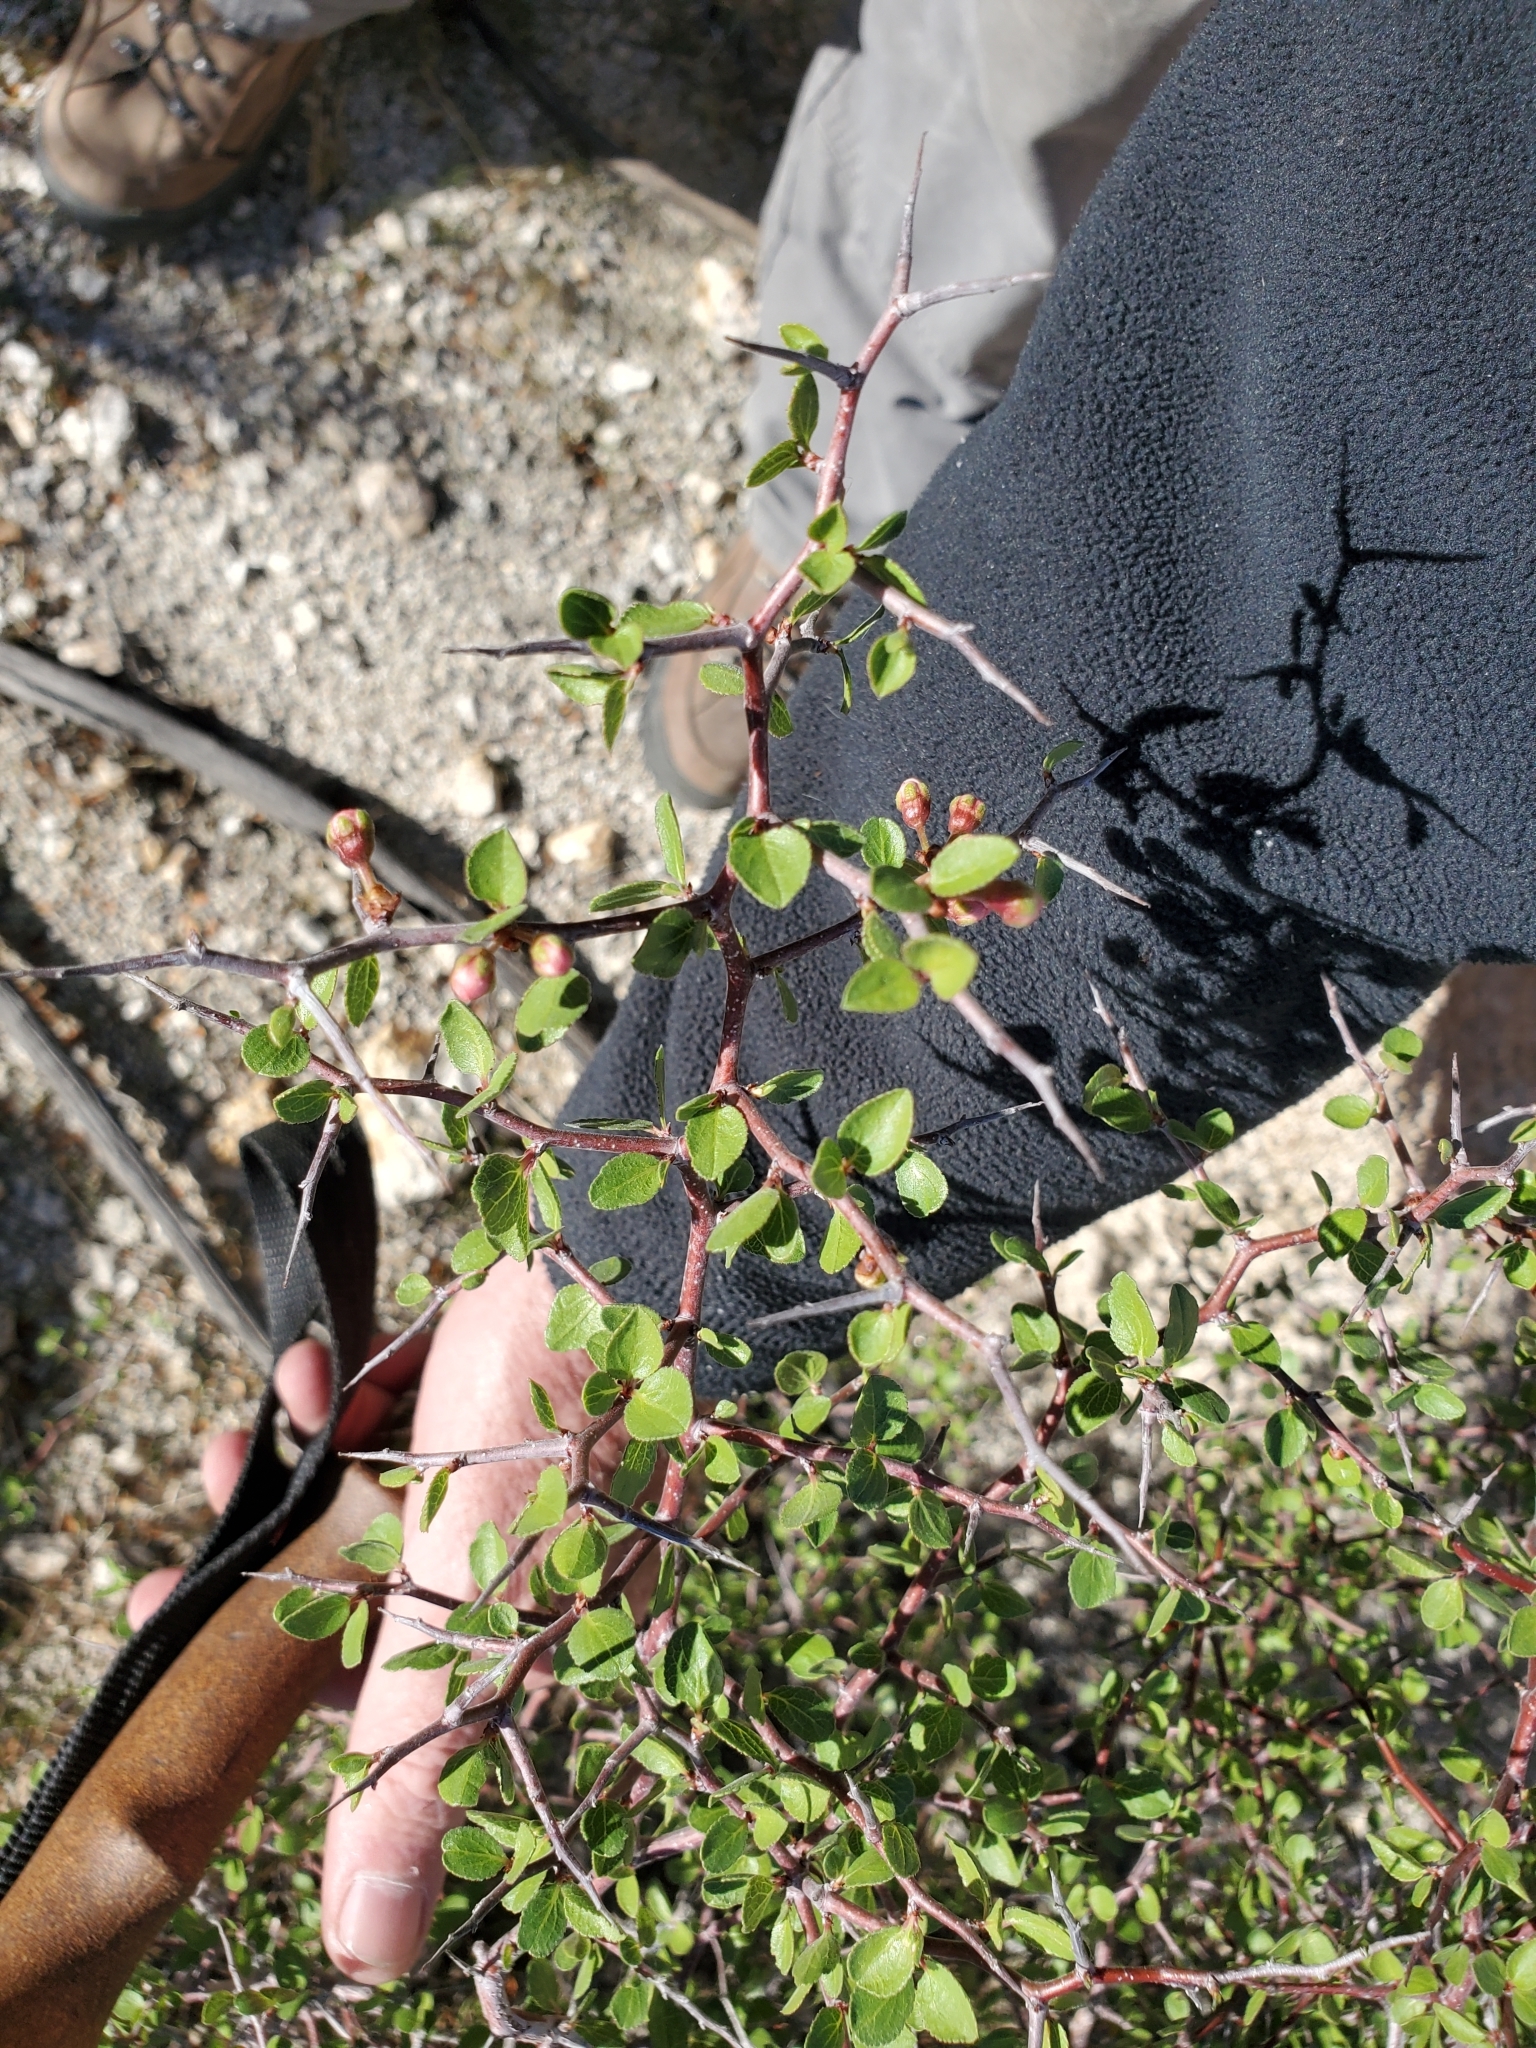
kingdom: Plantae
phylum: Tracheophyta
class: Magnoliopsida
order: Rosales
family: Rosaceae
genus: Prunus
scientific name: Prunus fremontii
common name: Desert apricot
